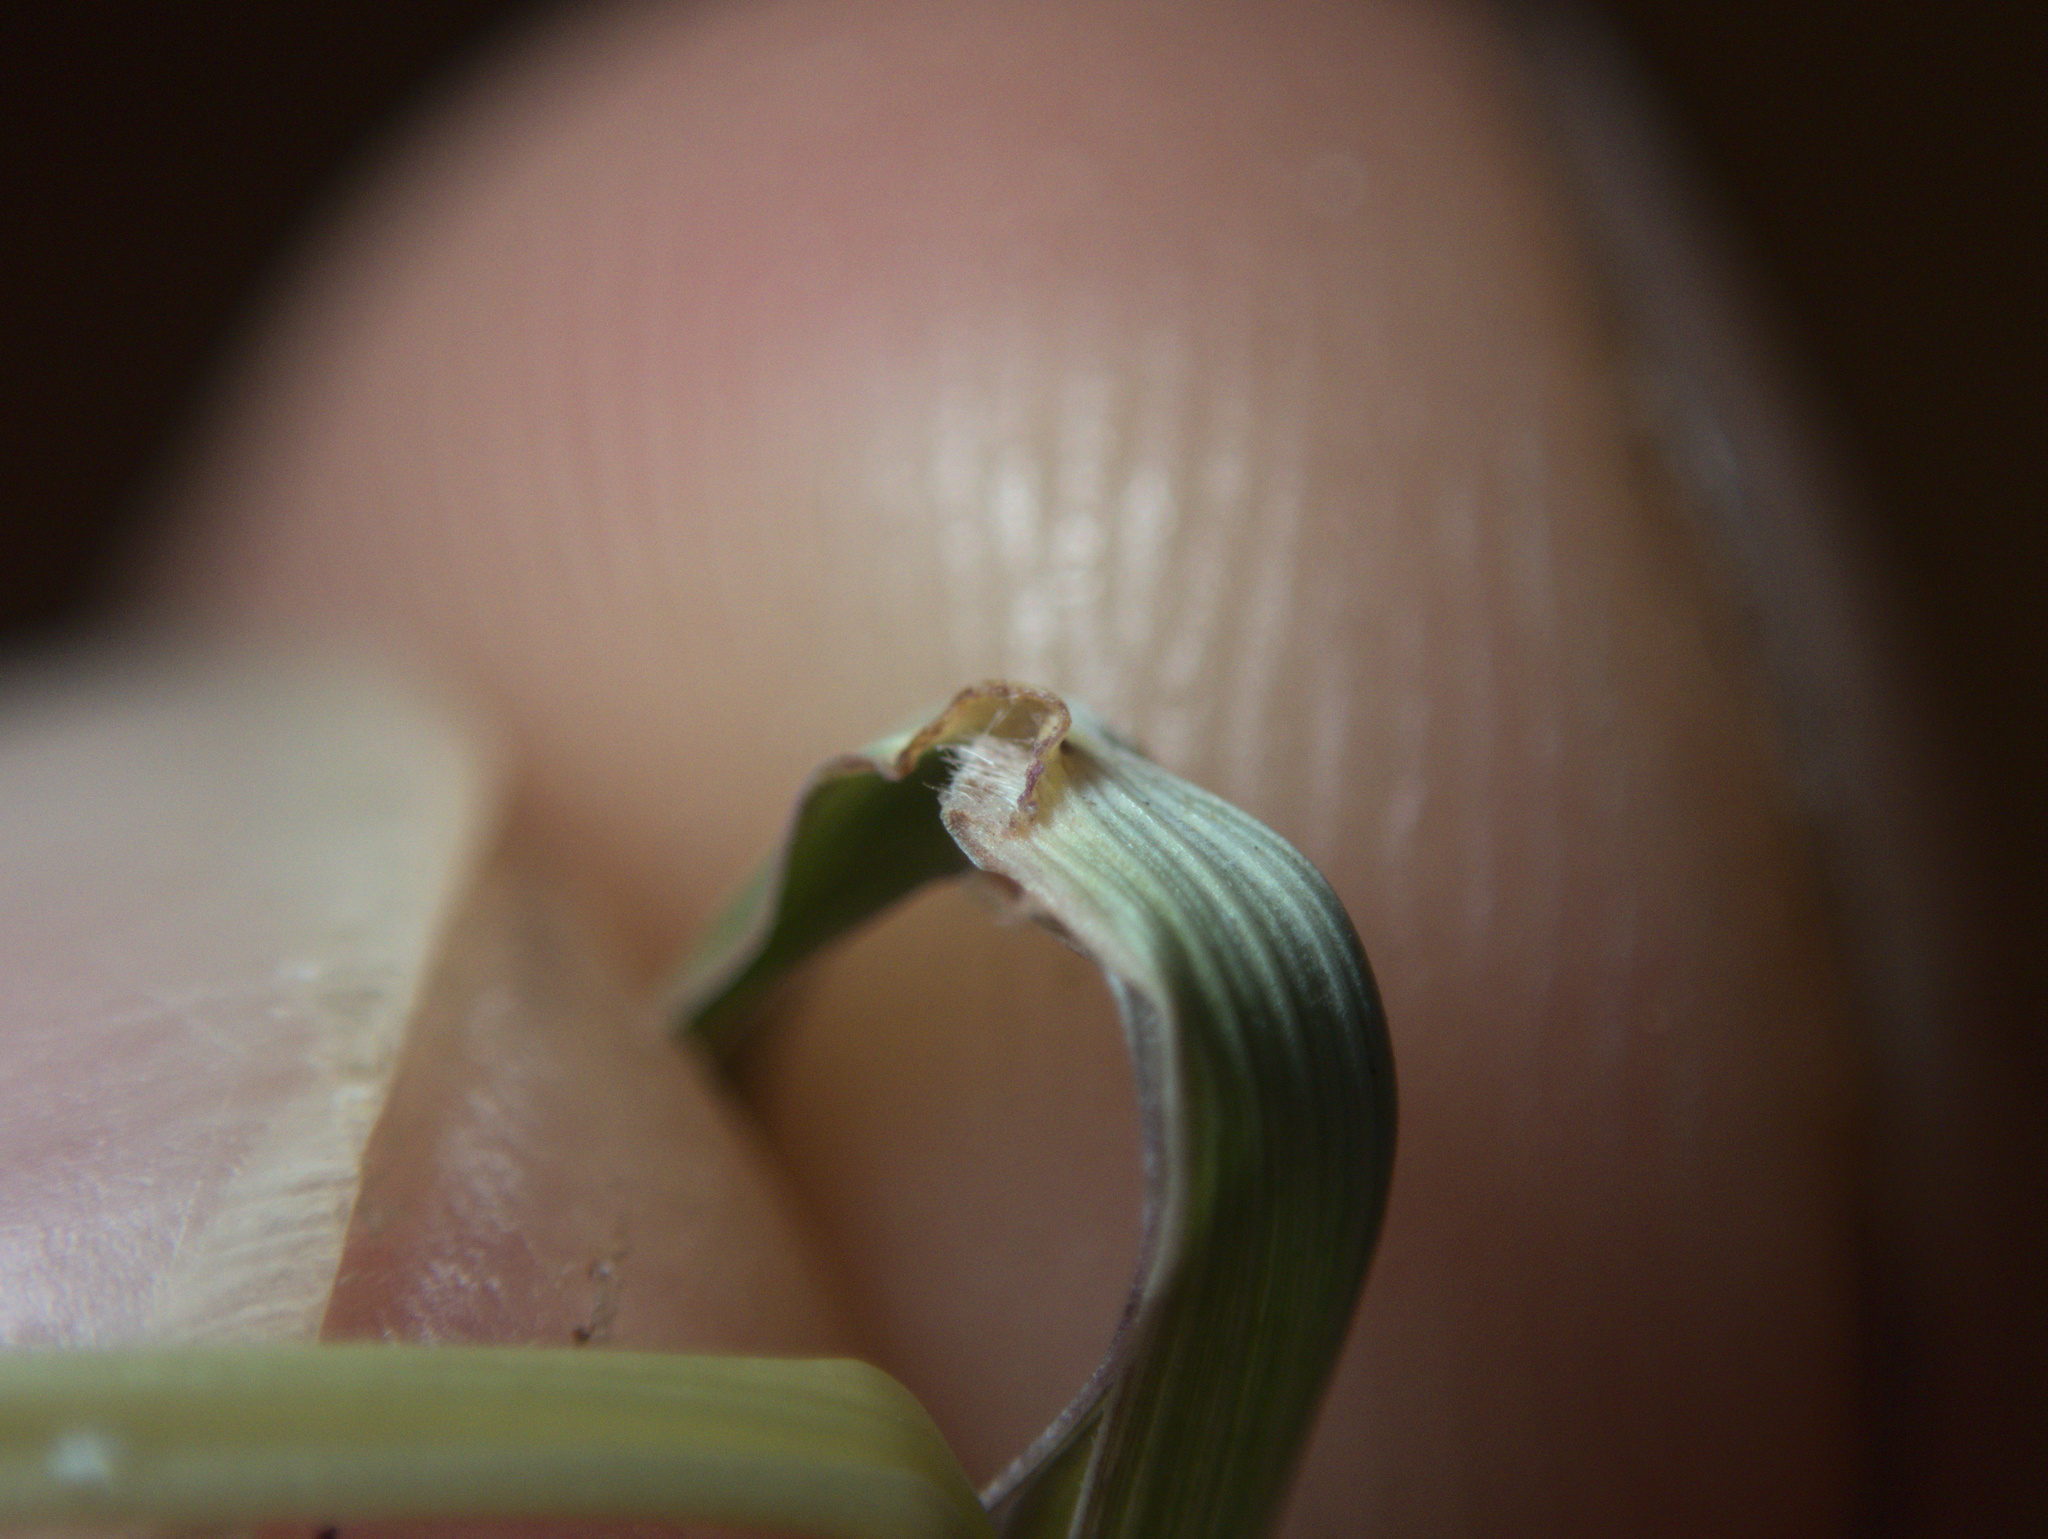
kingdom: Plantae
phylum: Tracheophyta
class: Liliopsida
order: Poales
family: Poaceae
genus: Bothriochloa
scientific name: Bothriochloa macra
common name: Pitted beard grass
